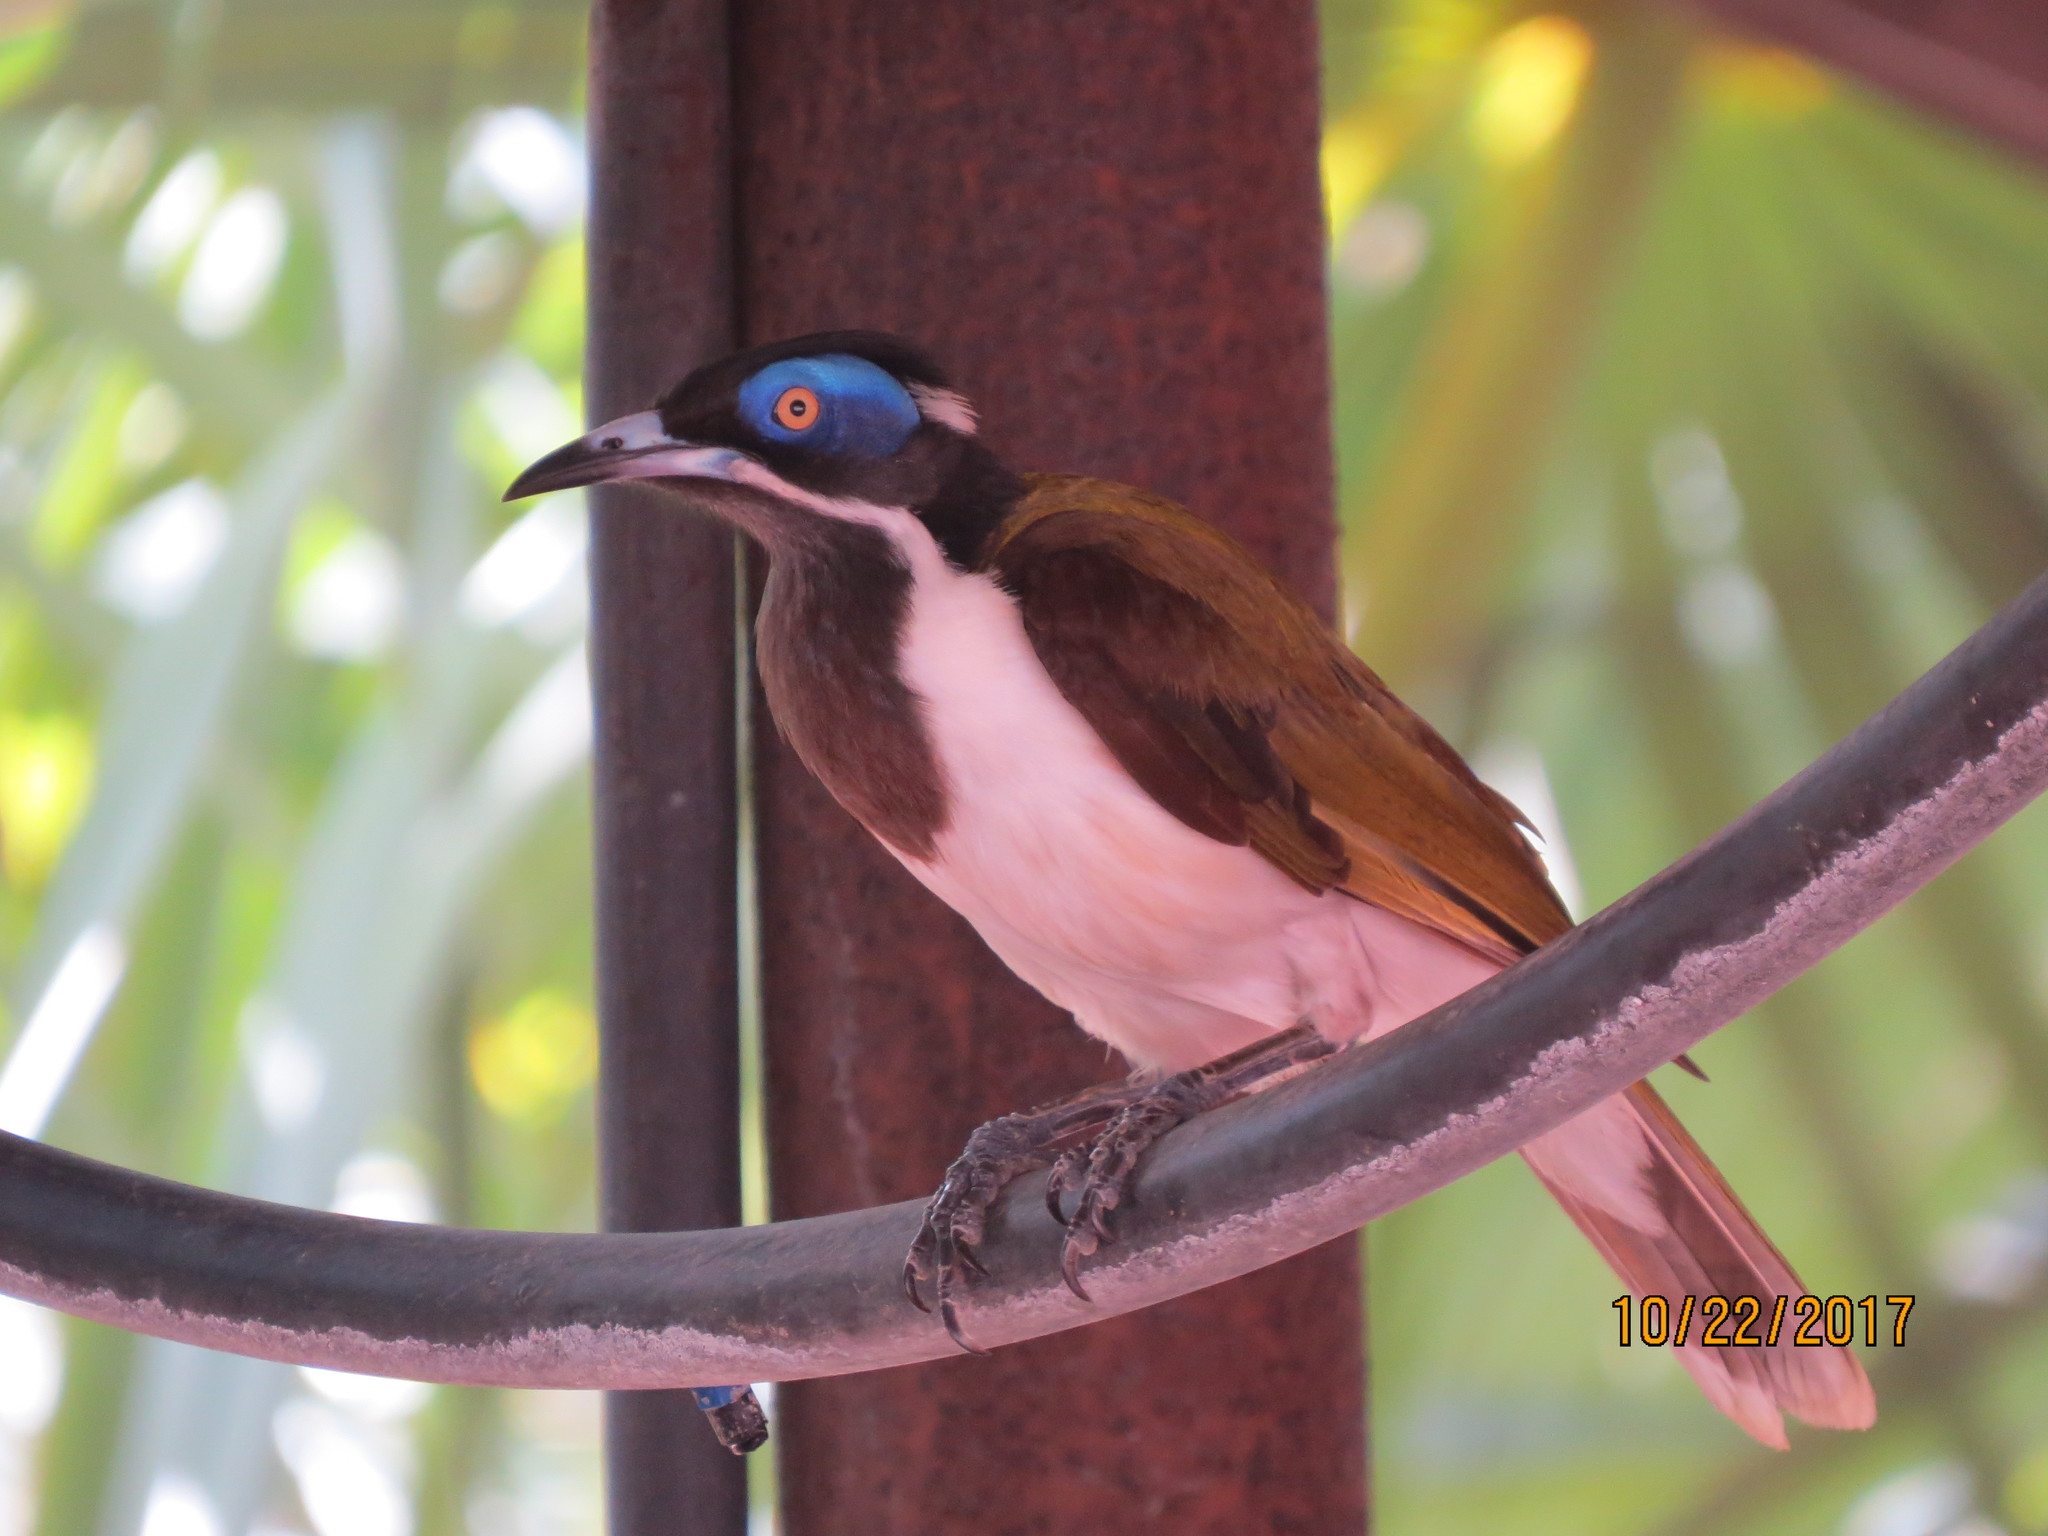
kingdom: Animalia
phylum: Chordata
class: Aves
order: Passeriformes
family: Meliphagidae
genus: Entomyzon
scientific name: Entomyzon cyanotis
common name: Blue-faced honeyeater
